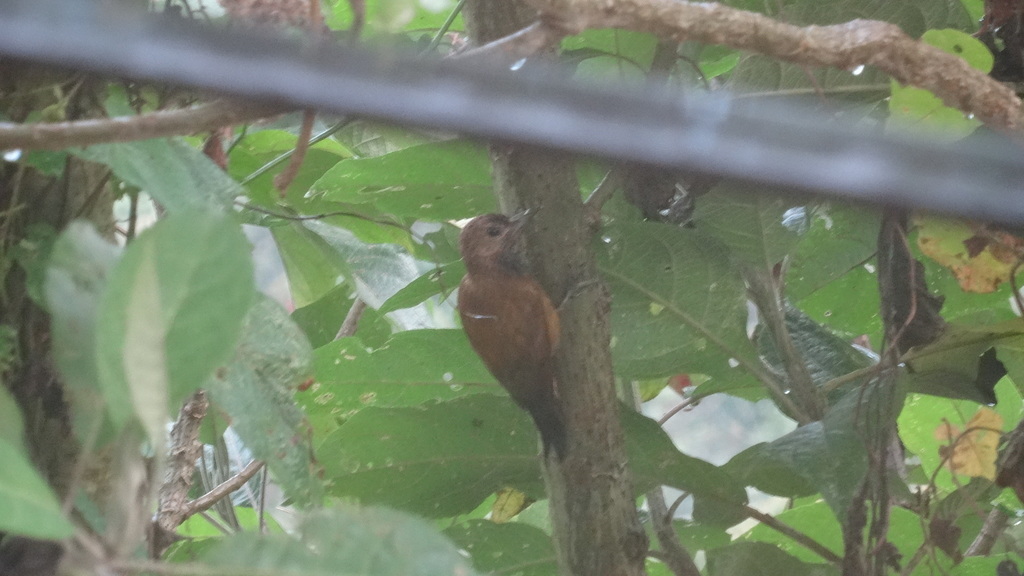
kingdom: Animalia
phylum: Chordata
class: Aves
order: Piciformes
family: Picidae
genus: Leuconotopicus
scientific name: Leuconotopicus fumigatus
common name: Smoky-brown woodpecker
